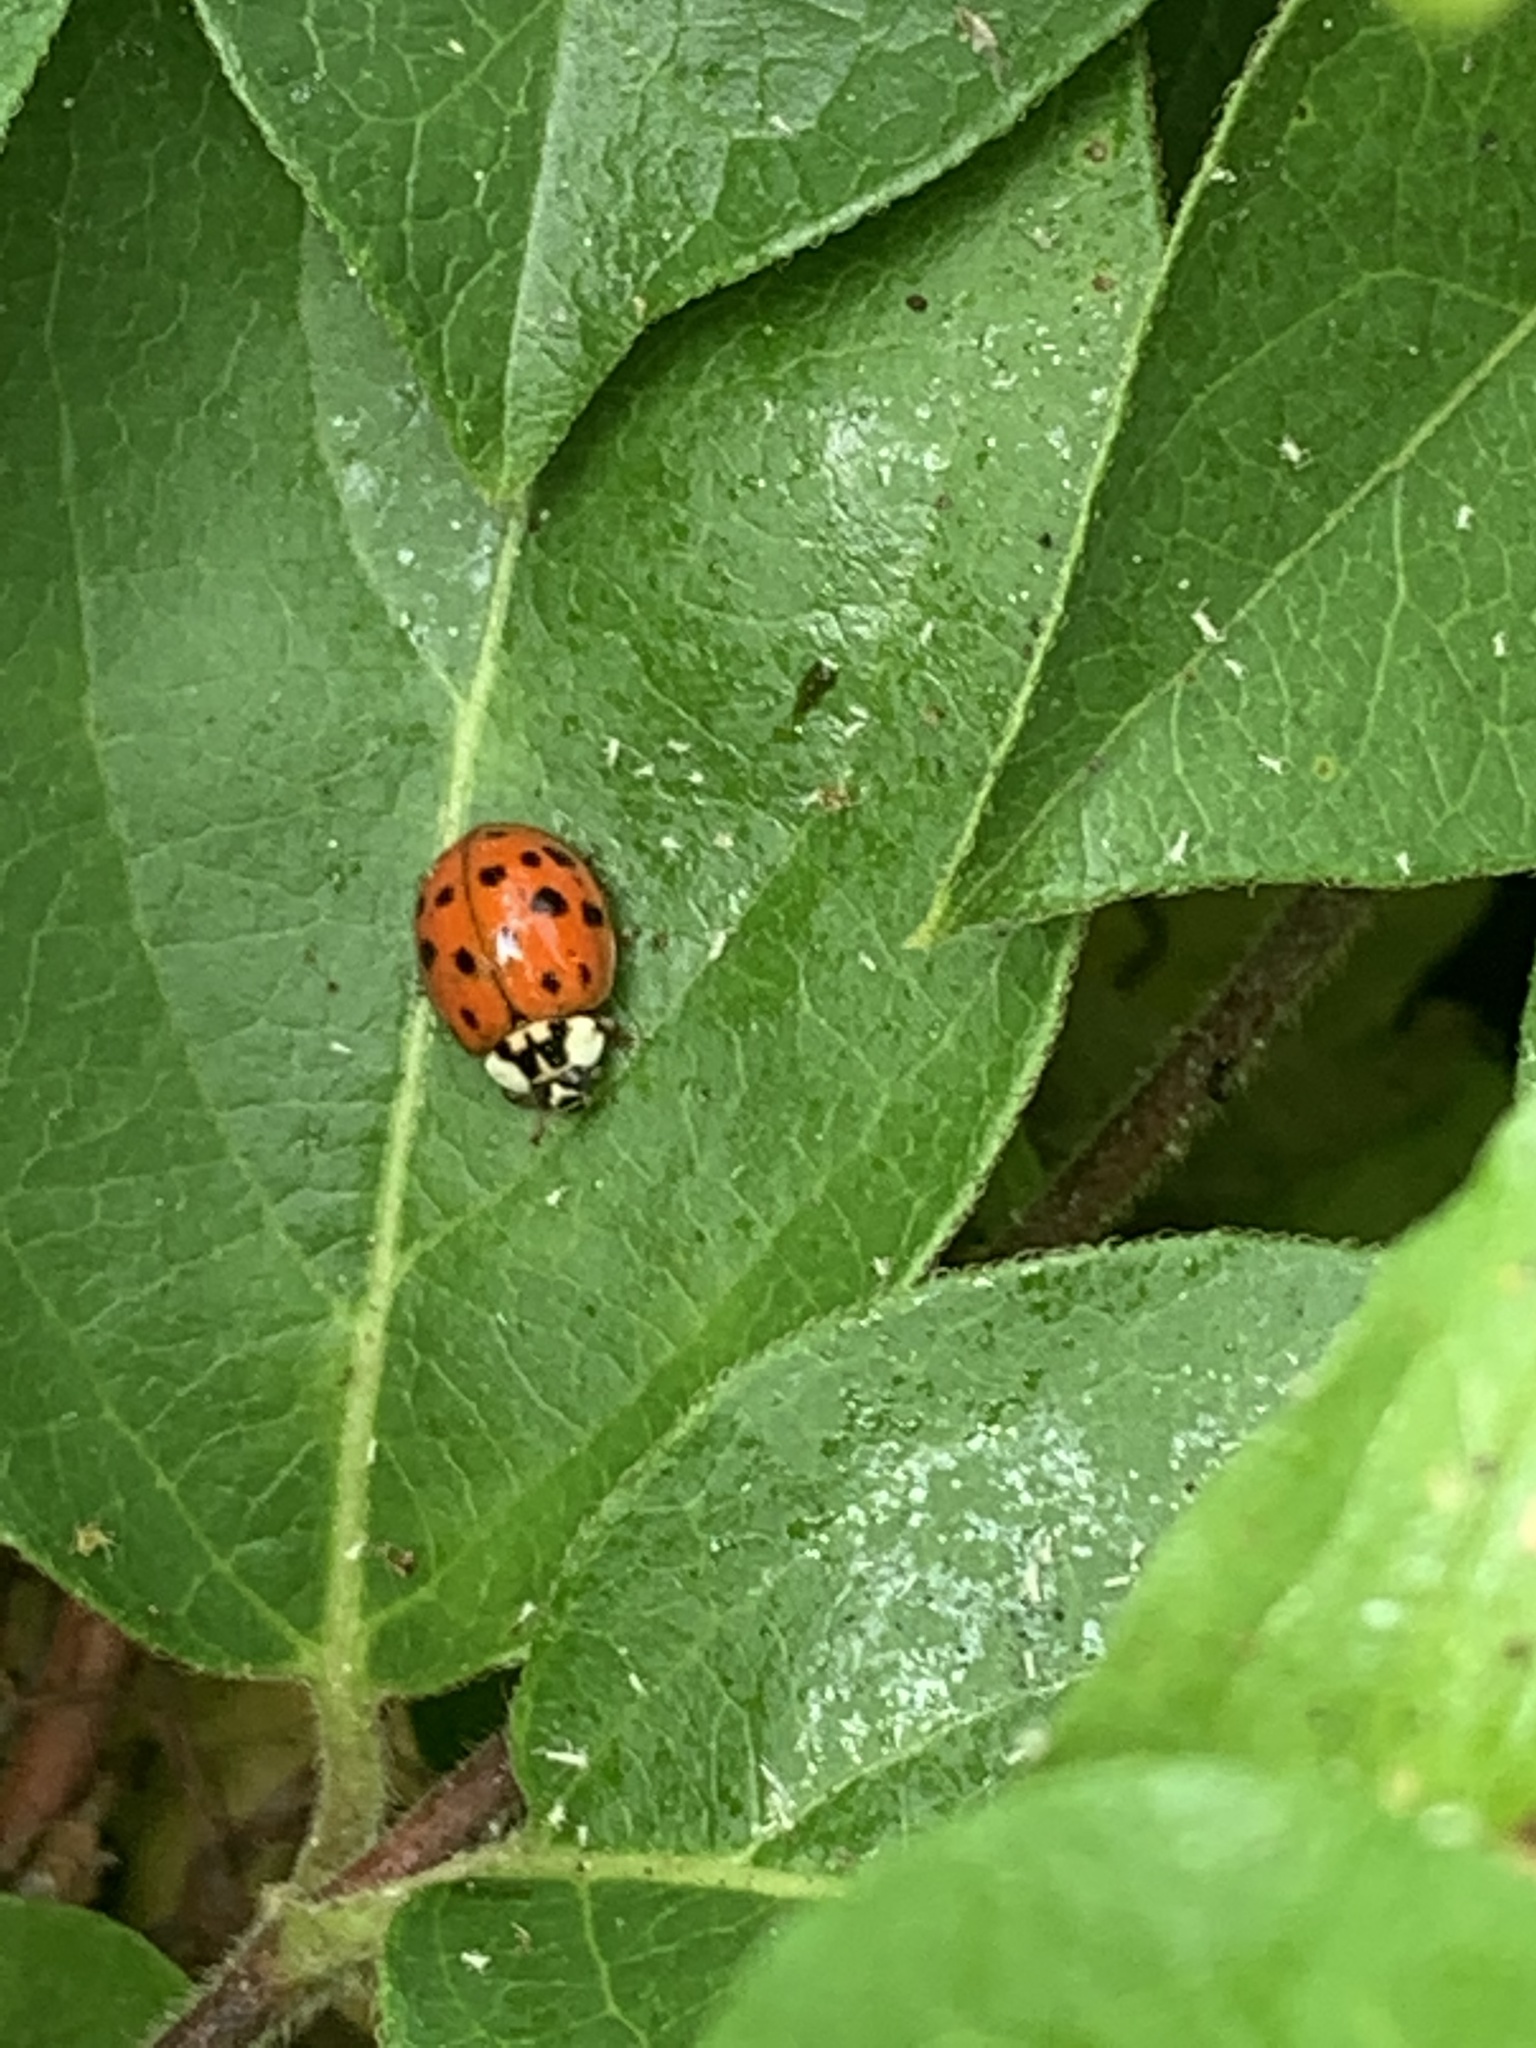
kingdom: Animalia
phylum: Arthropoda
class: Insecta
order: Coleoptera
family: Coccinellidae
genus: Harmonia
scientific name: Harmonia axyridis
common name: Harlequin ladybird
